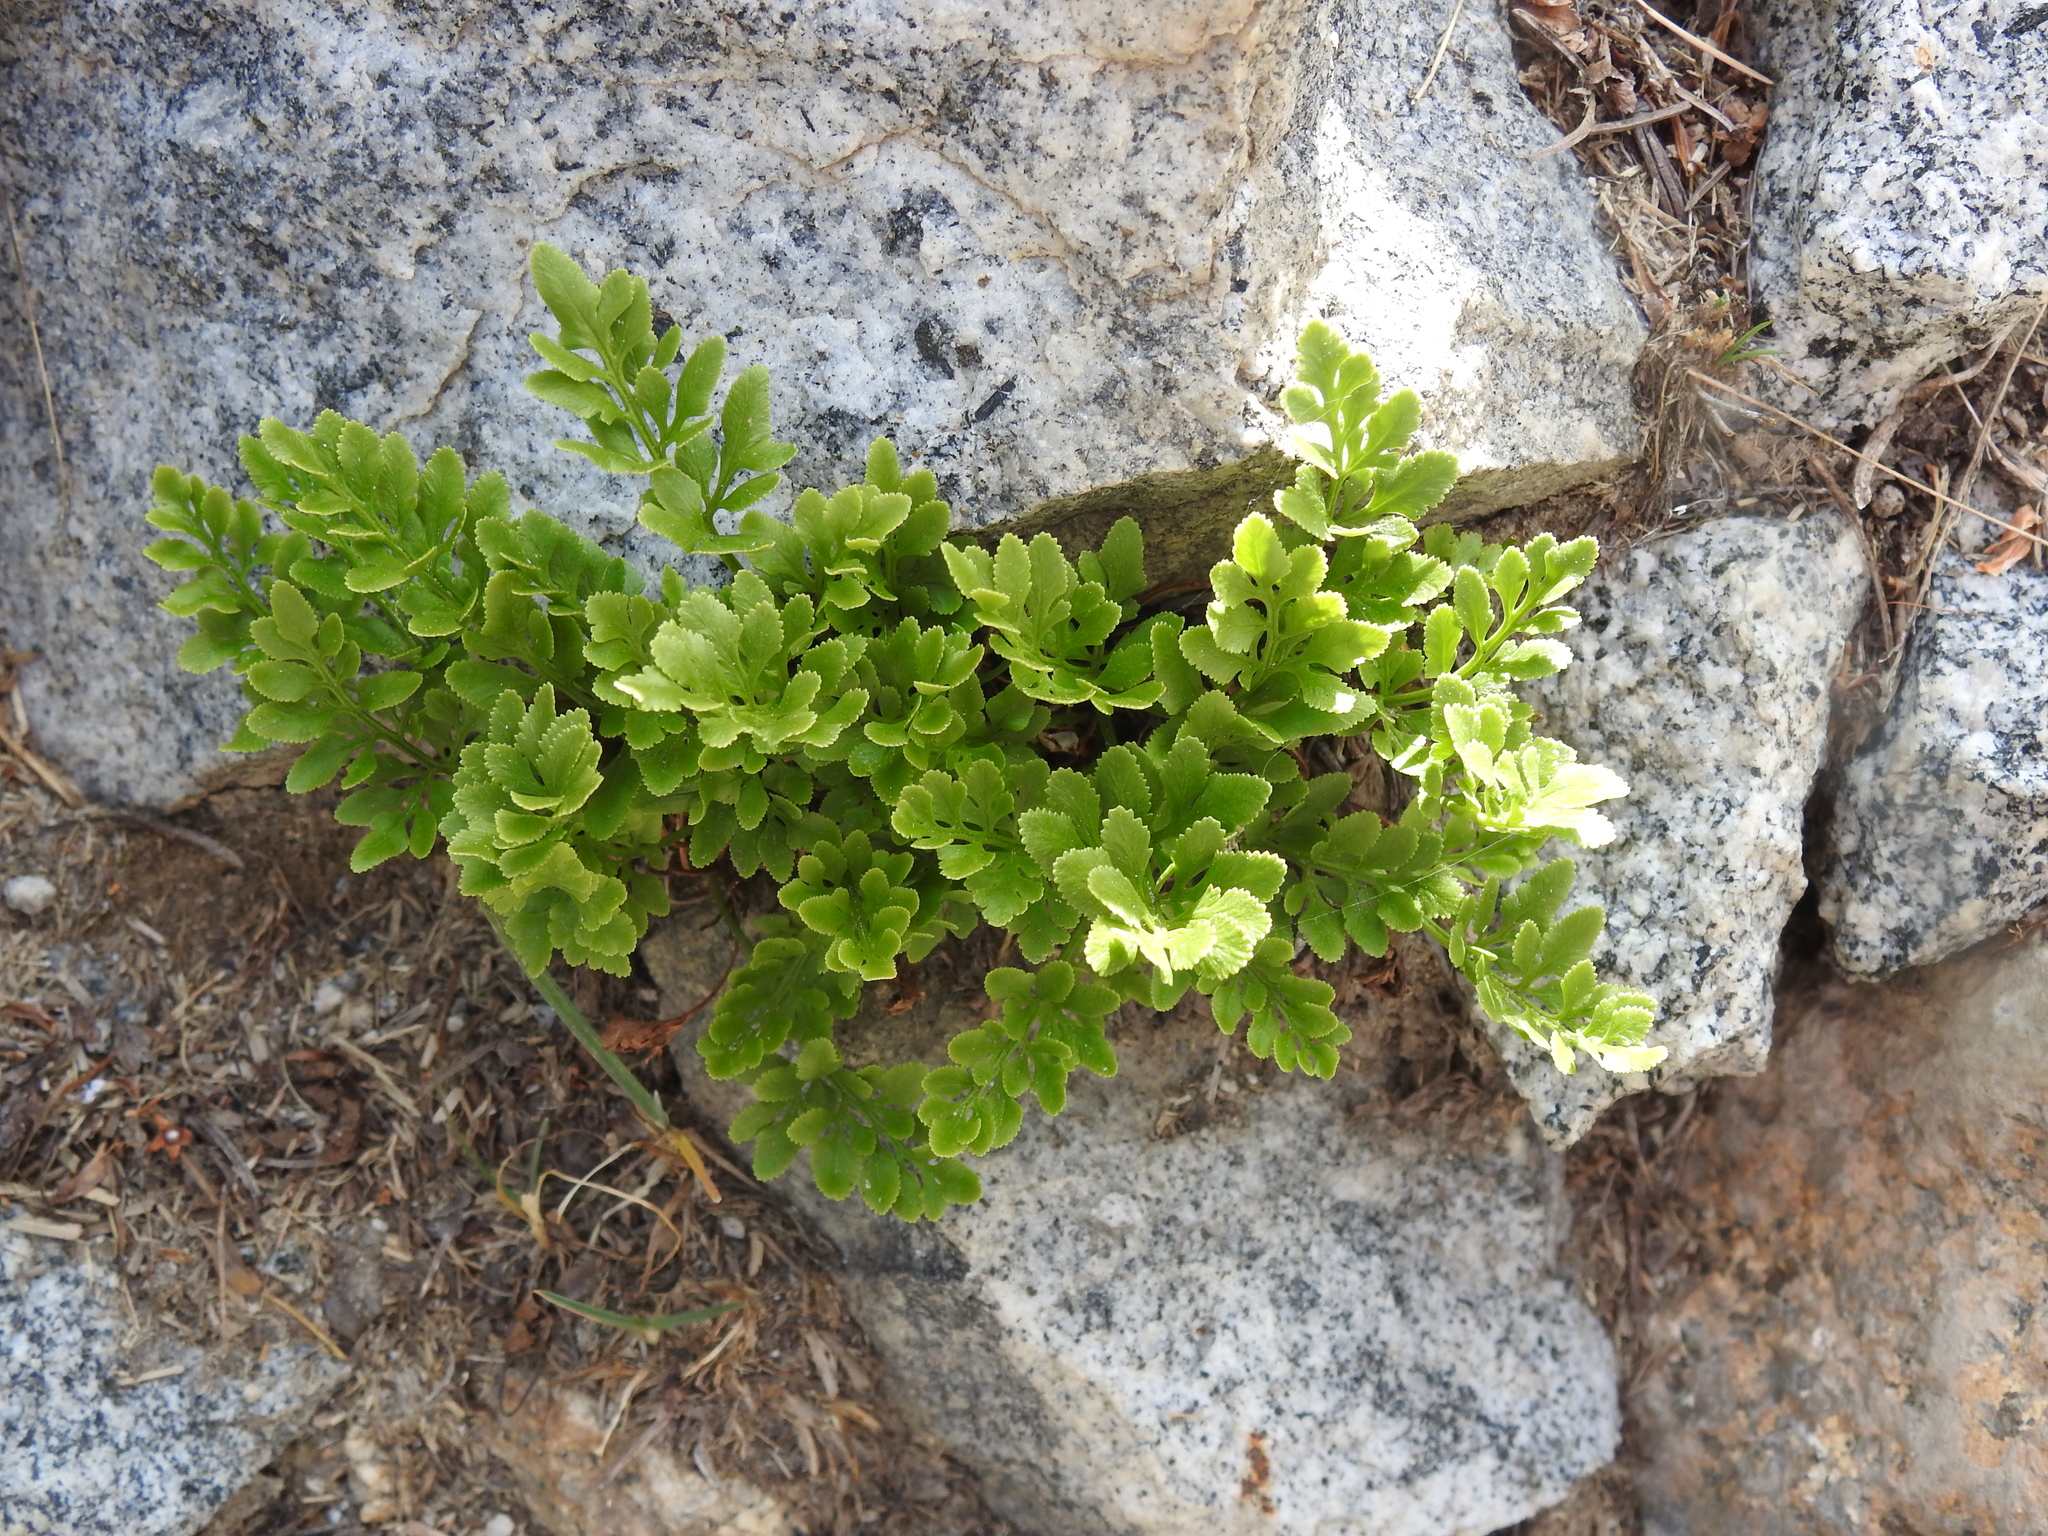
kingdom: Plantae
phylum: Tracheophyta
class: Polypodiopsida
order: Polypodiales
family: Pteridaceae
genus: Cryptogramma
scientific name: Cryptogramma acrostichoides
